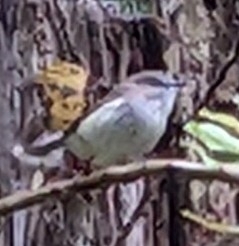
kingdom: Animalia
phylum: Chordata
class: Aves
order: Passeriformes
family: Acanthizidae
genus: Gerygone
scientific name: Gerygone igata
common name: Grey gerygone
